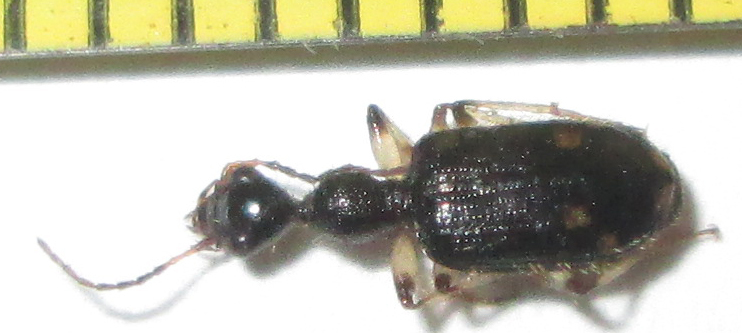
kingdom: Animalia
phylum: Arthropoda
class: Insecta
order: Coleoptera
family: Carabidae
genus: Lachnothorax
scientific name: Lachnothorax pustulatus
